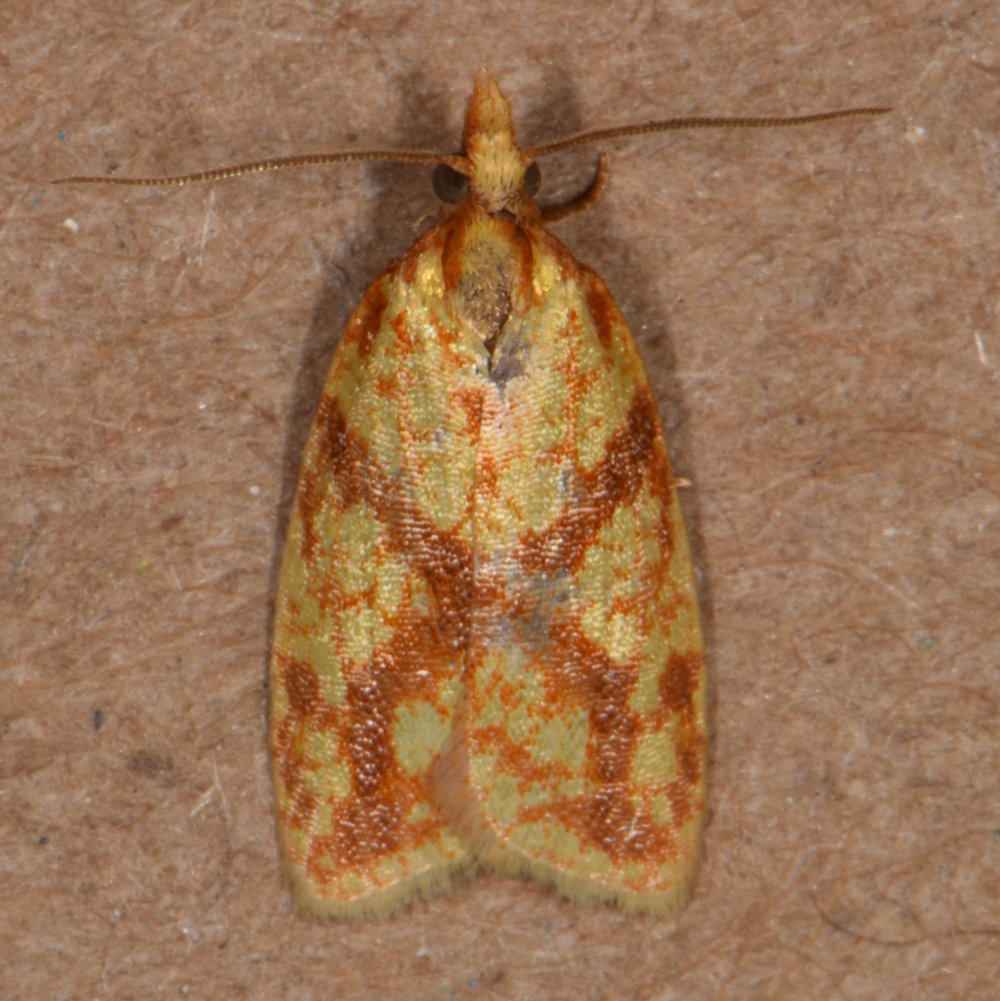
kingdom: Animalia
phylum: Arthropoda
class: Insecta
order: Lepidoptera
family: Tortricidae
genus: Sparganothis
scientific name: Sparganothis sulfureana
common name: Sparganothis fruitworm moth
